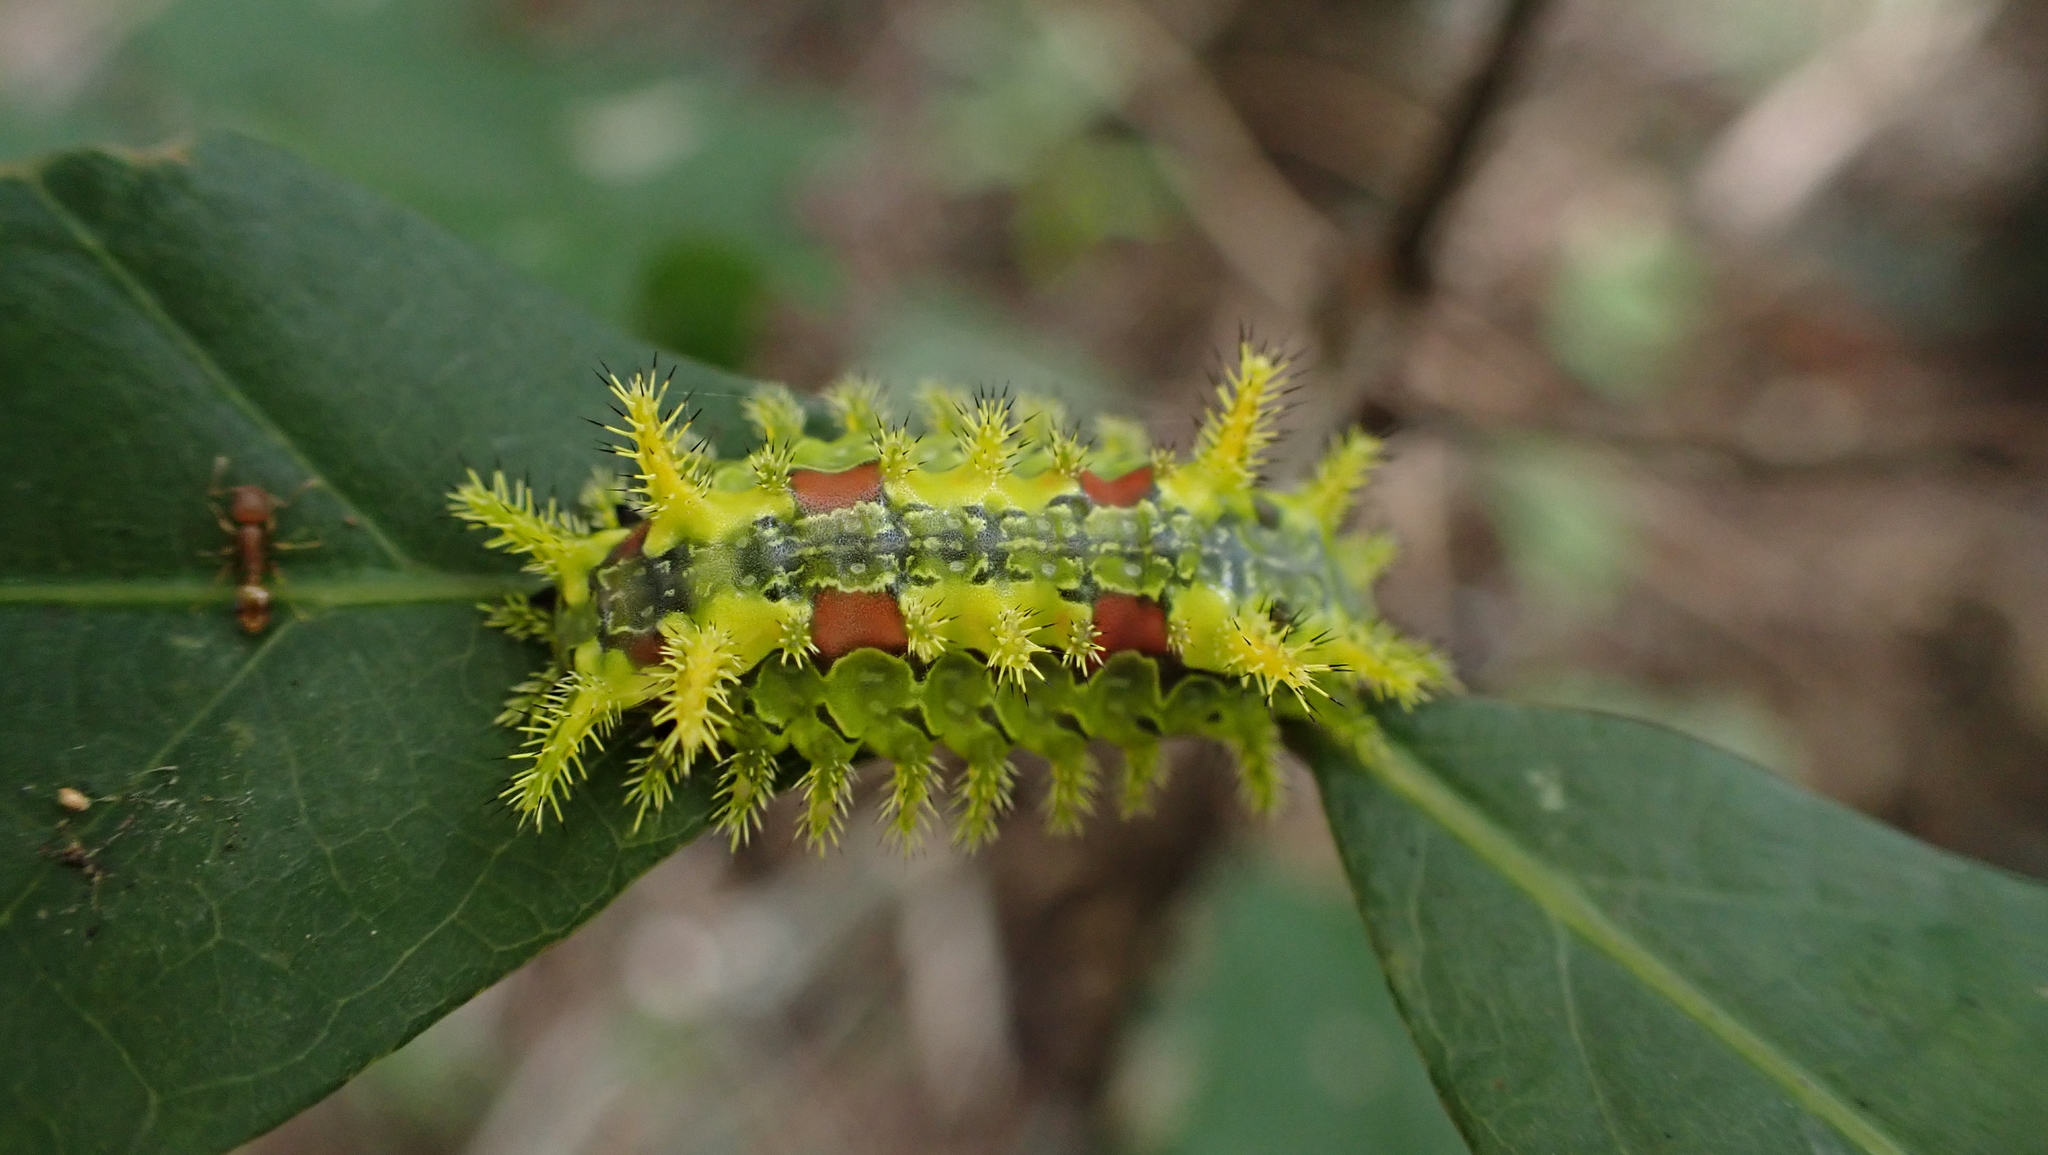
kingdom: Animalia
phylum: Arthropoda
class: Insecta
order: Lepidoptera
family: Limacodidae
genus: Euclea
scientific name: Euclea delphinii
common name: Spiny oak-slug moth
